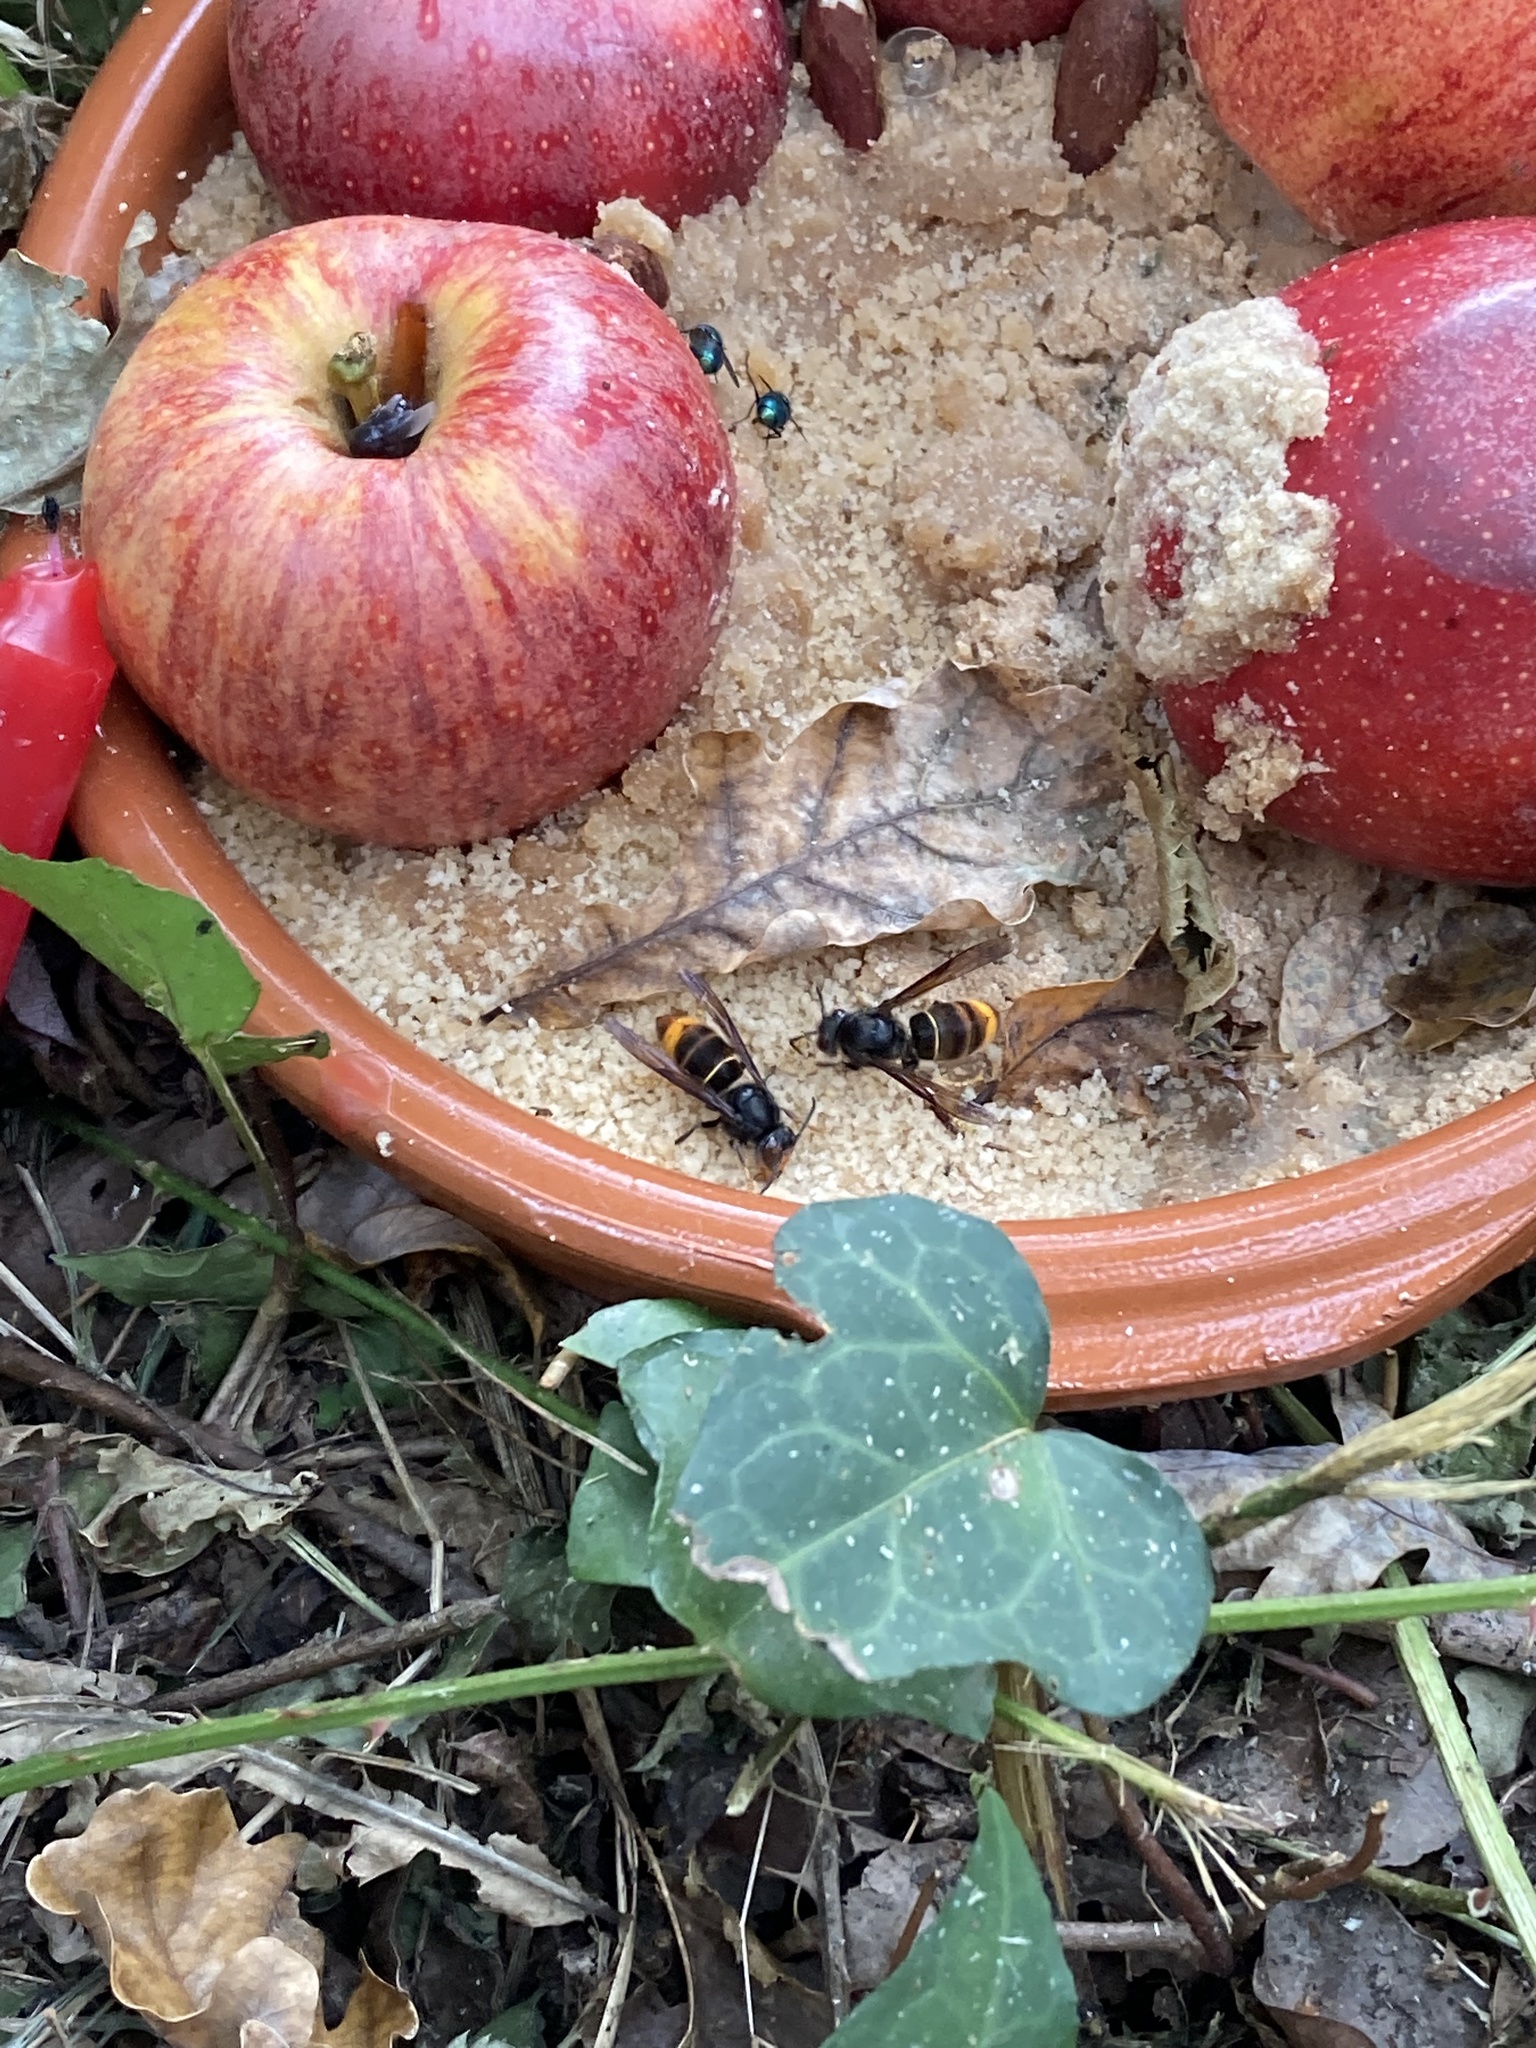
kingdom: Animalia
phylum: Arthropoda
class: Insecta
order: Hymenoptera
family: Vespidae
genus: Vespa
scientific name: Vespa velutina
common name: Asian hornet
